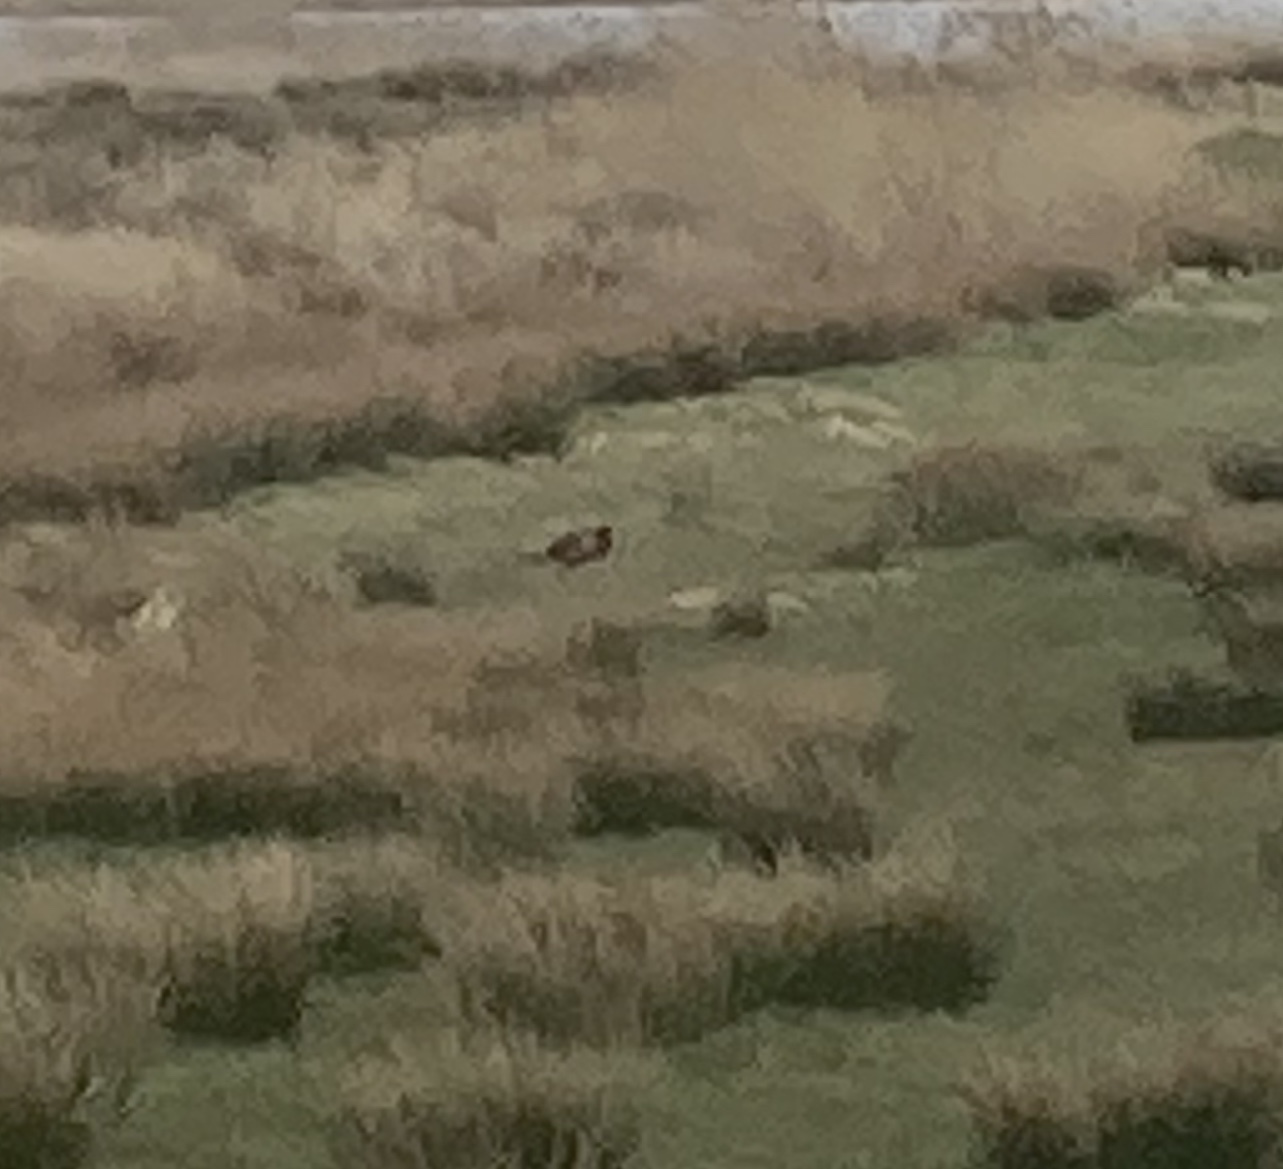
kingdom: Animalia
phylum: Chordata
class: Aves
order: Galliformes
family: Phasianidae
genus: Phasianus
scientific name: Phasianus colchicus
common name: Common pheasant
